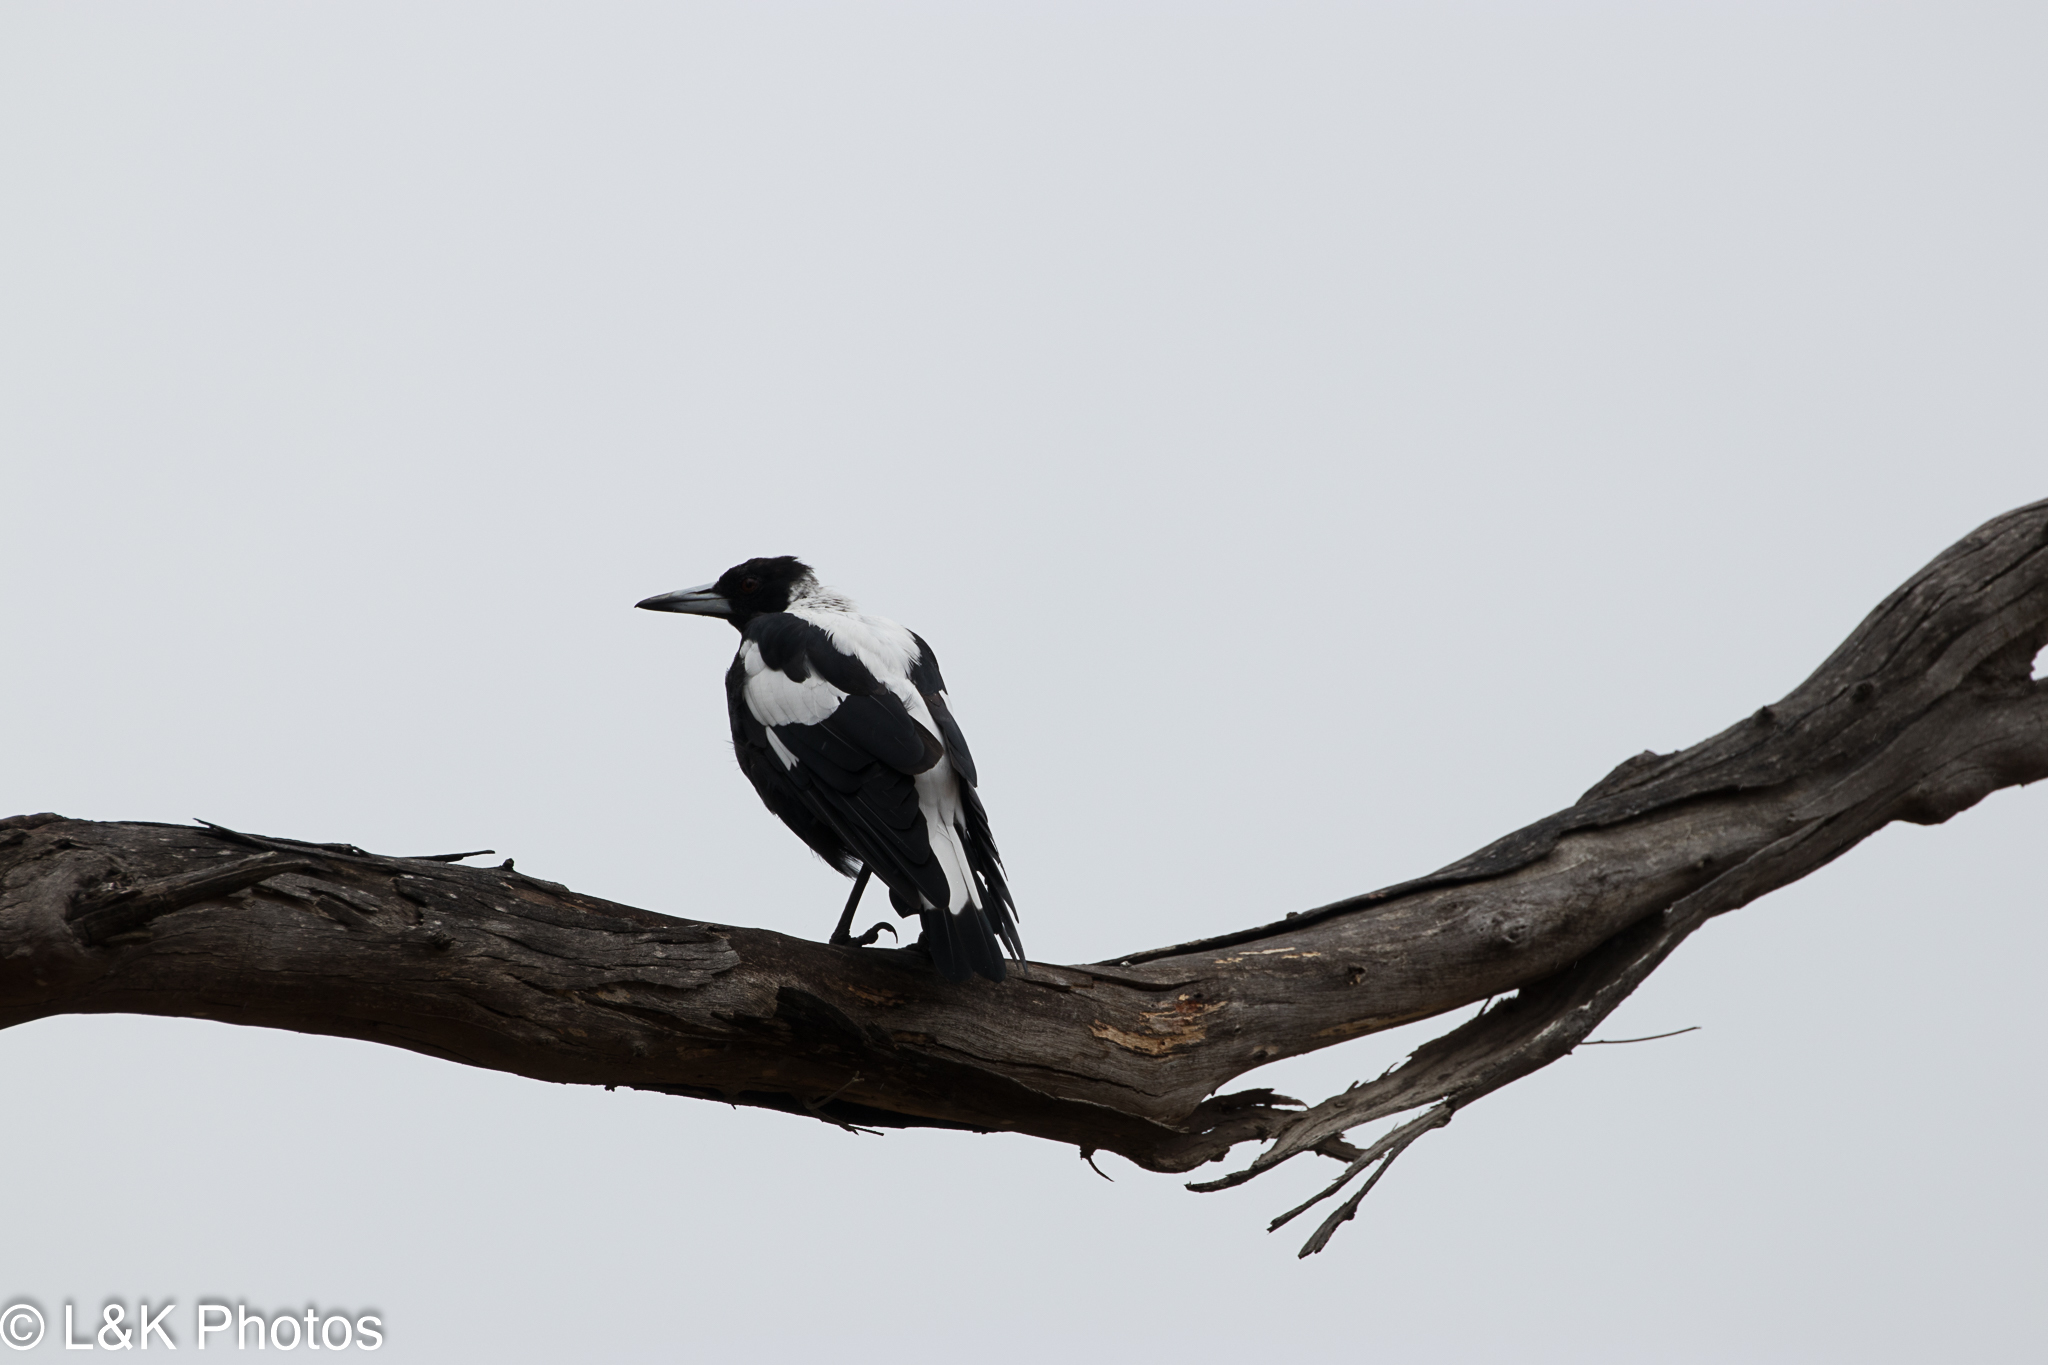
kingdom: Animalia
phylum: Chordata
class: Aves
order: Passeriformes
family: Cracticidae
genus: Gymnorhina
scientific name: Gymnorhina tibicen
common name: Australian magpie
